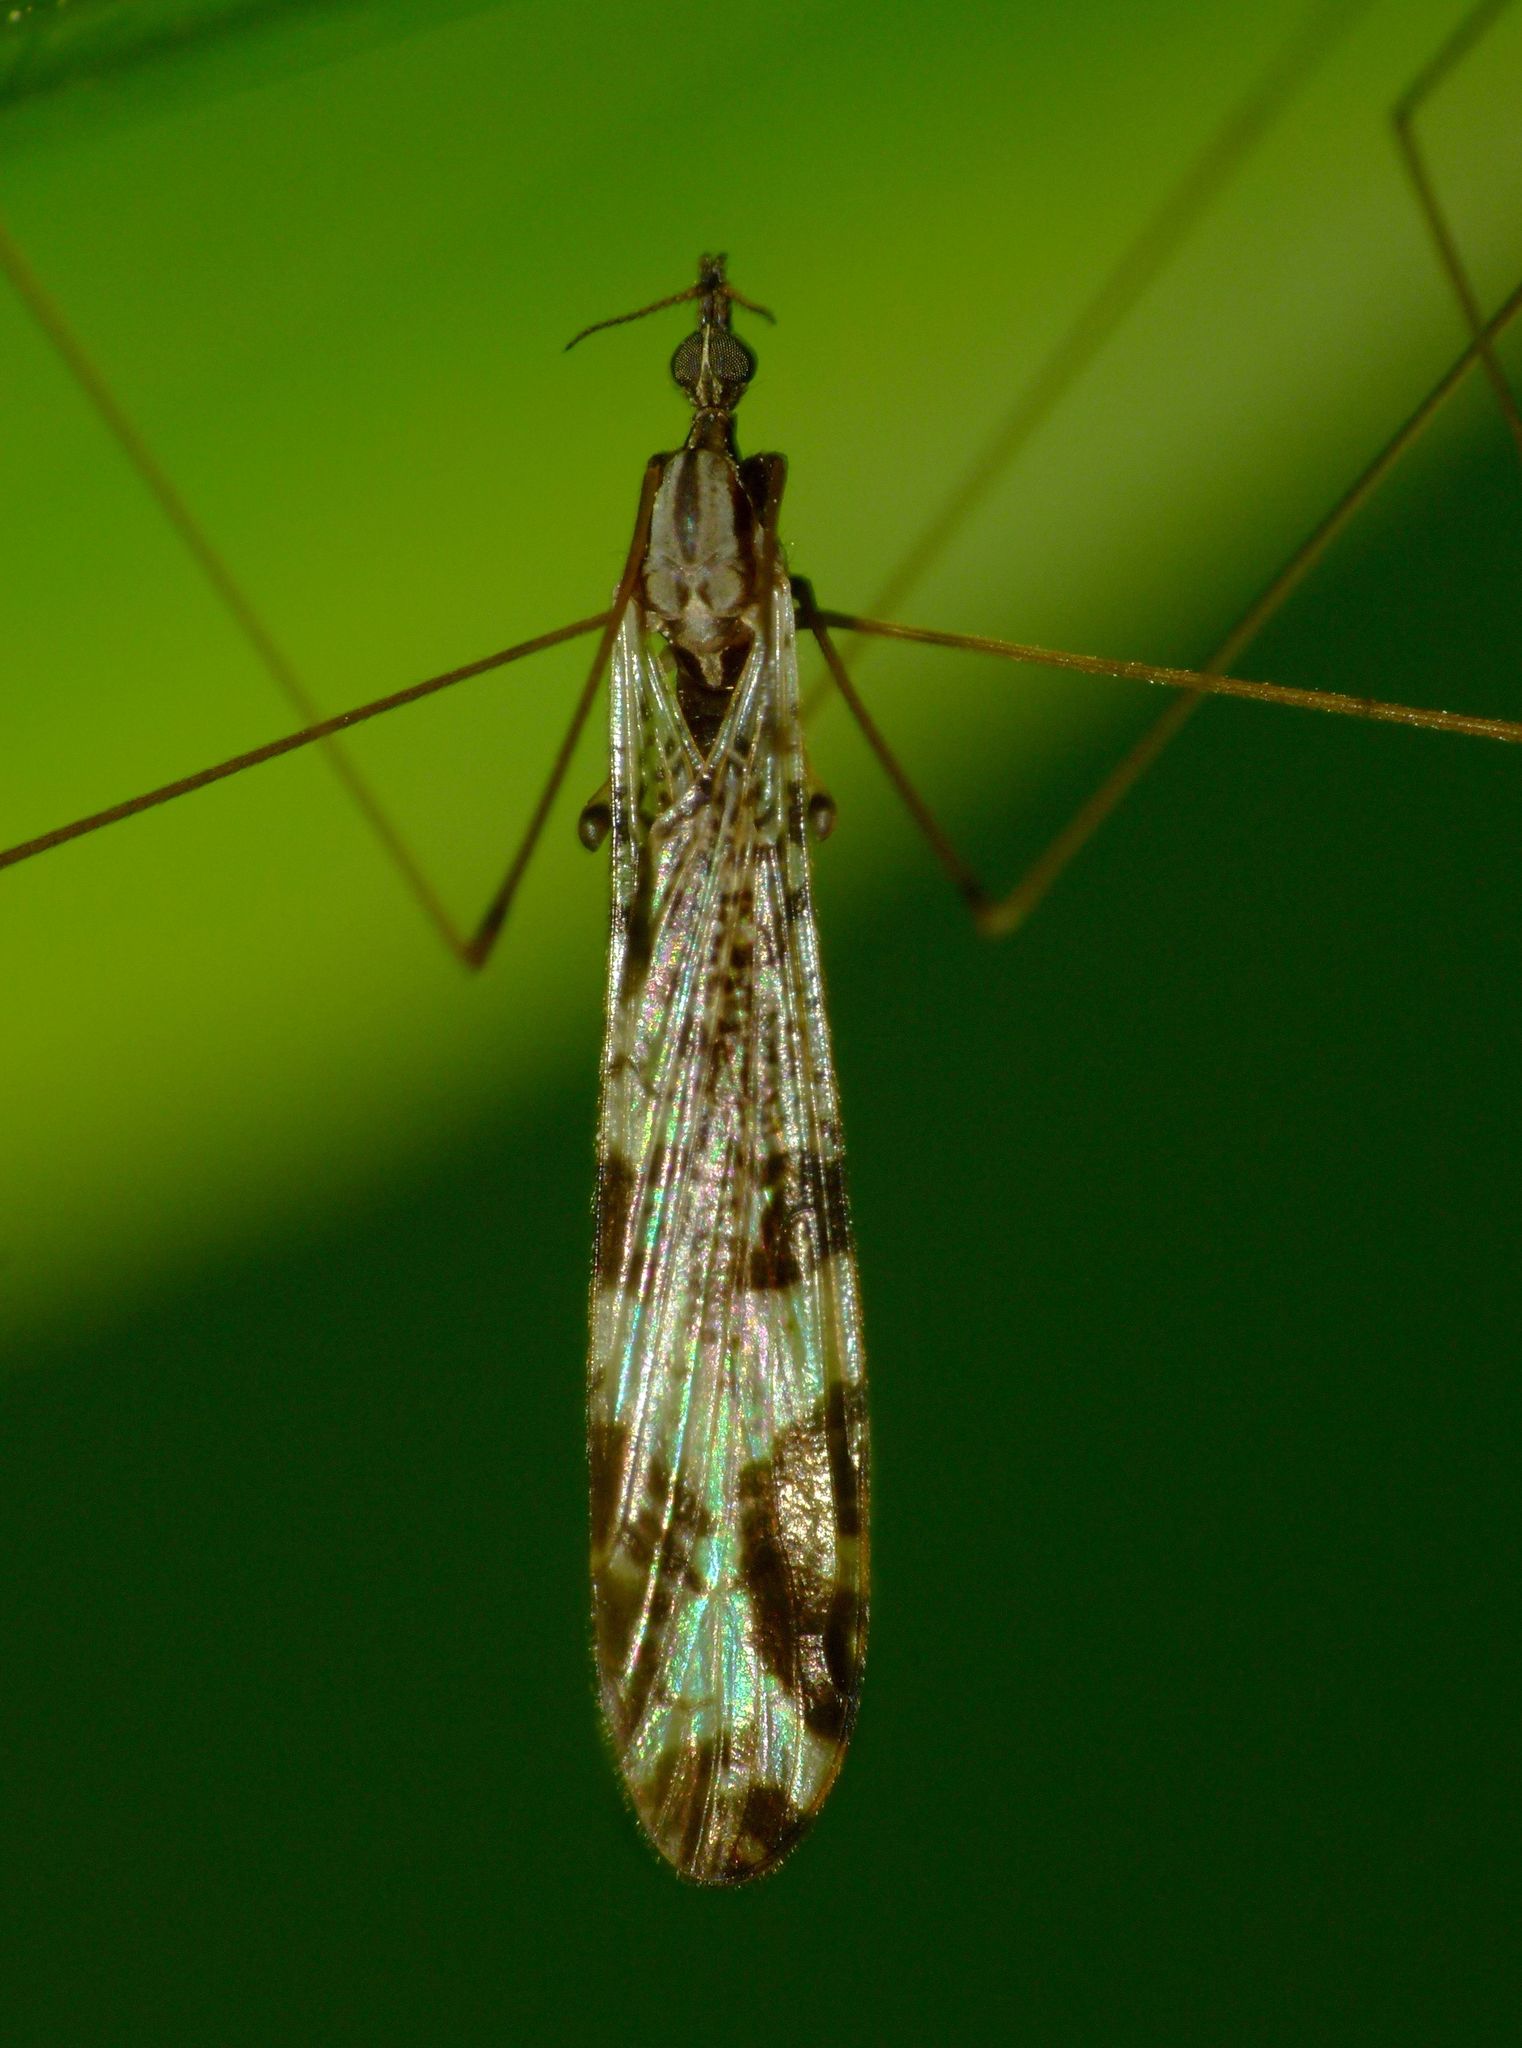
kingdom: Animalia
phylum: Arthropoda
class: Insecta
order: Diptera
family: Limoniidae
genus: Discobola
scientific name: Discobola venustula
